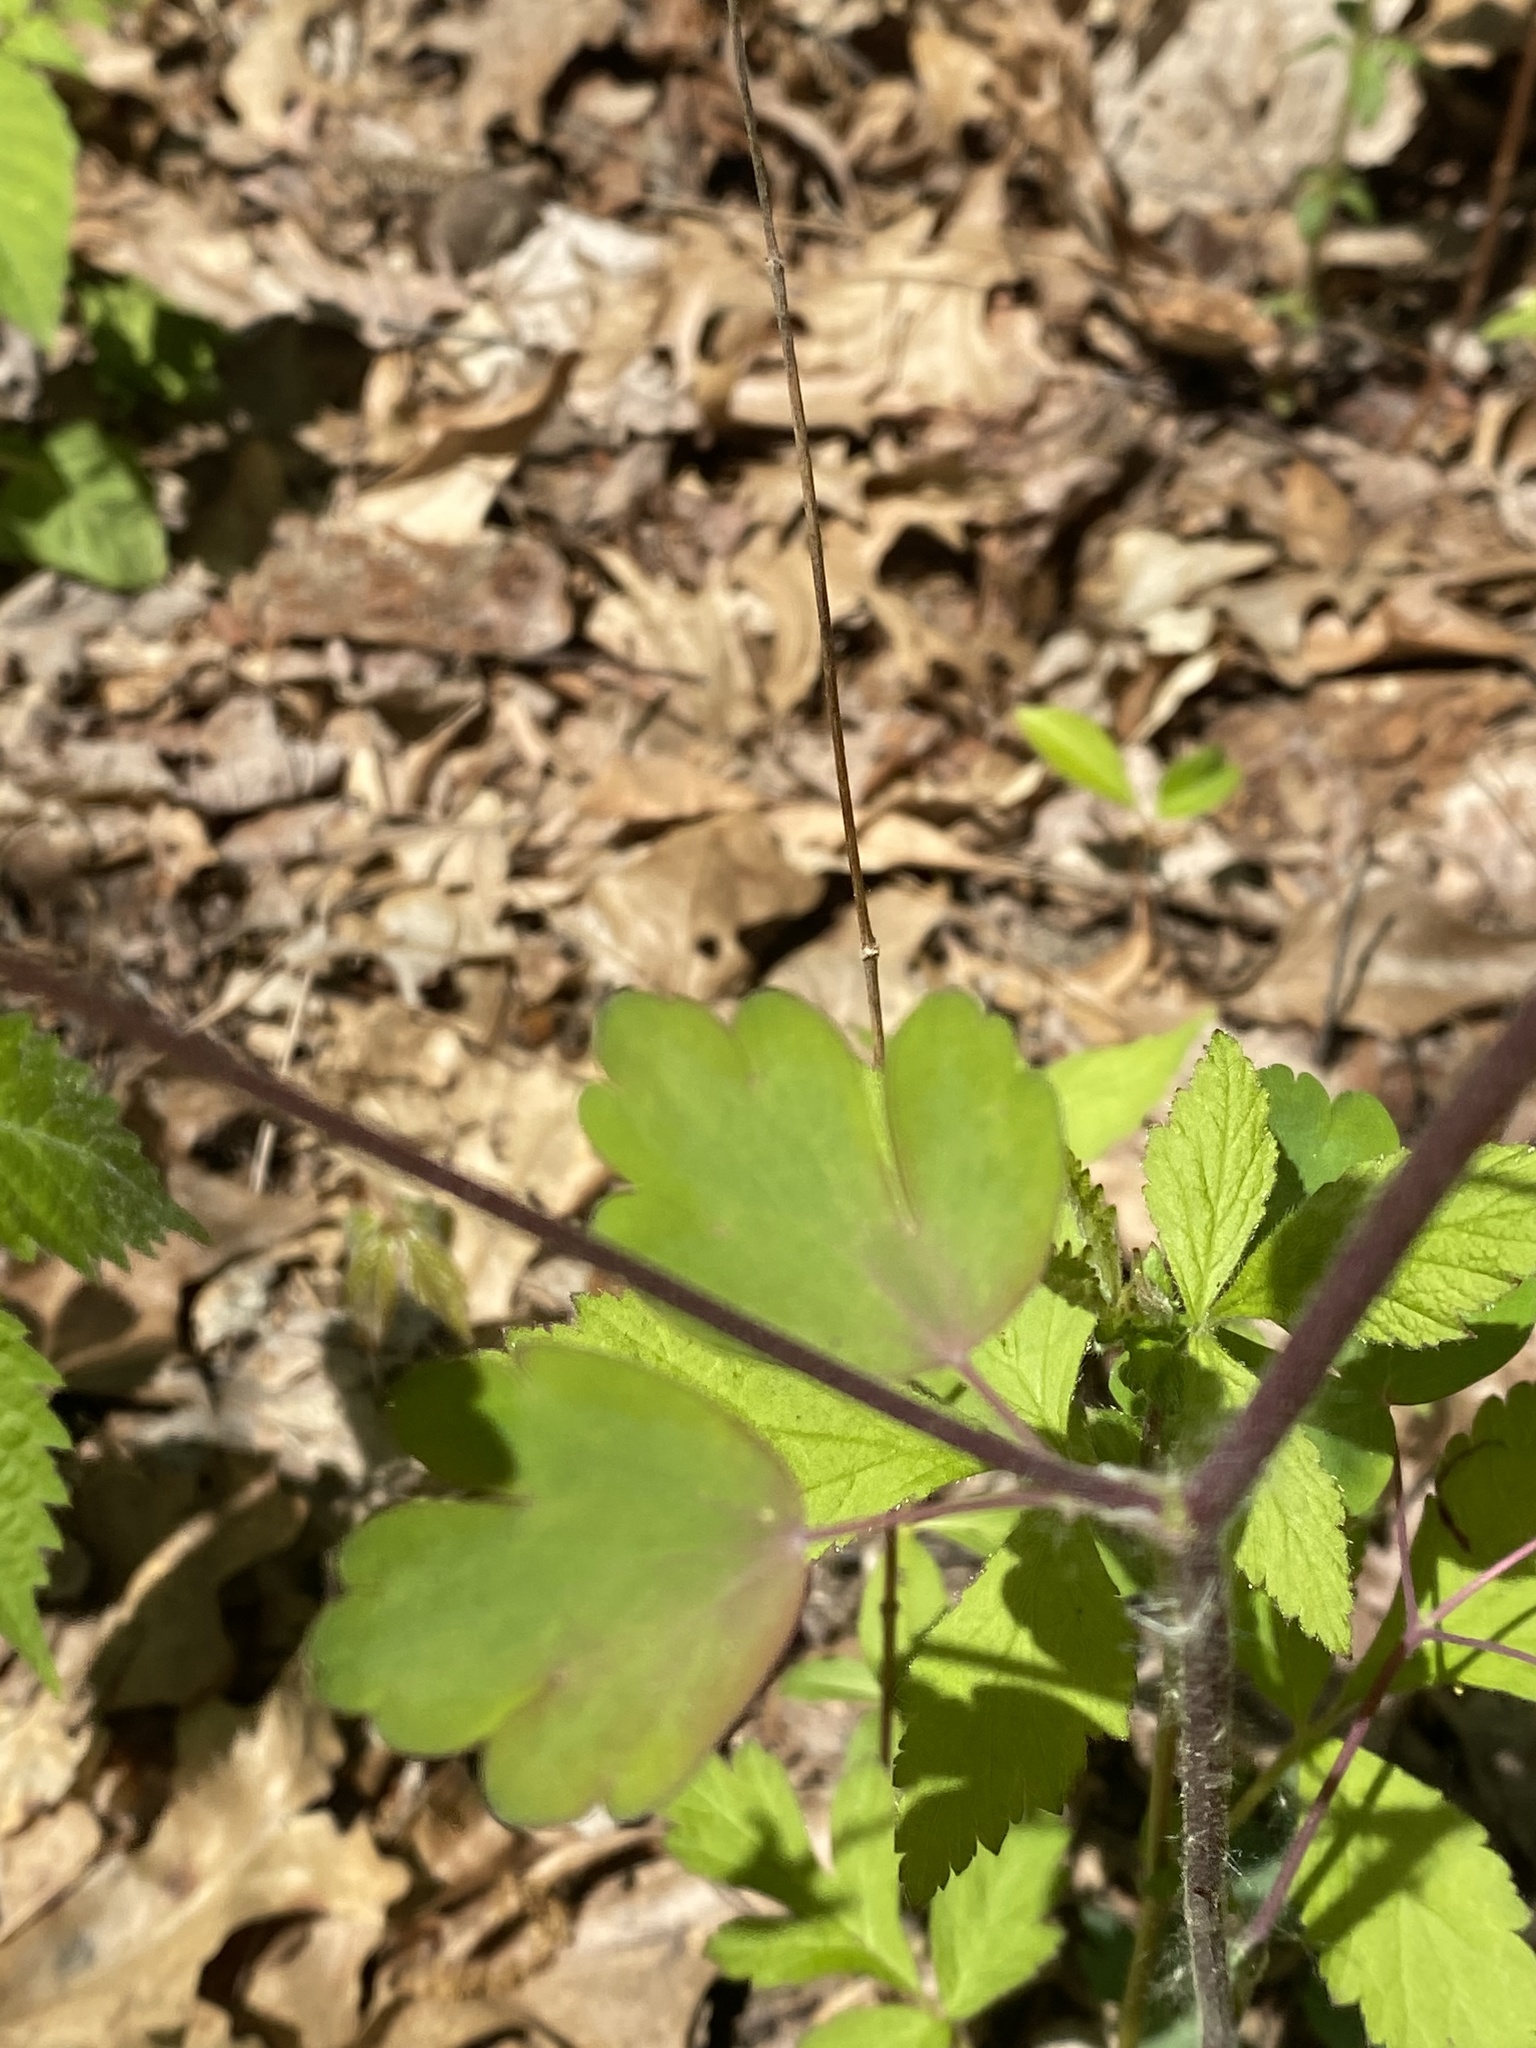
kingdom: Plantae
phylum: Tracheophyta
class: Magnoliopsida
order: Ranunculales
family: Ranunculaceae
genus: Aquilegia
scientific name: Aquilegia canadensis
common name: American columbine
